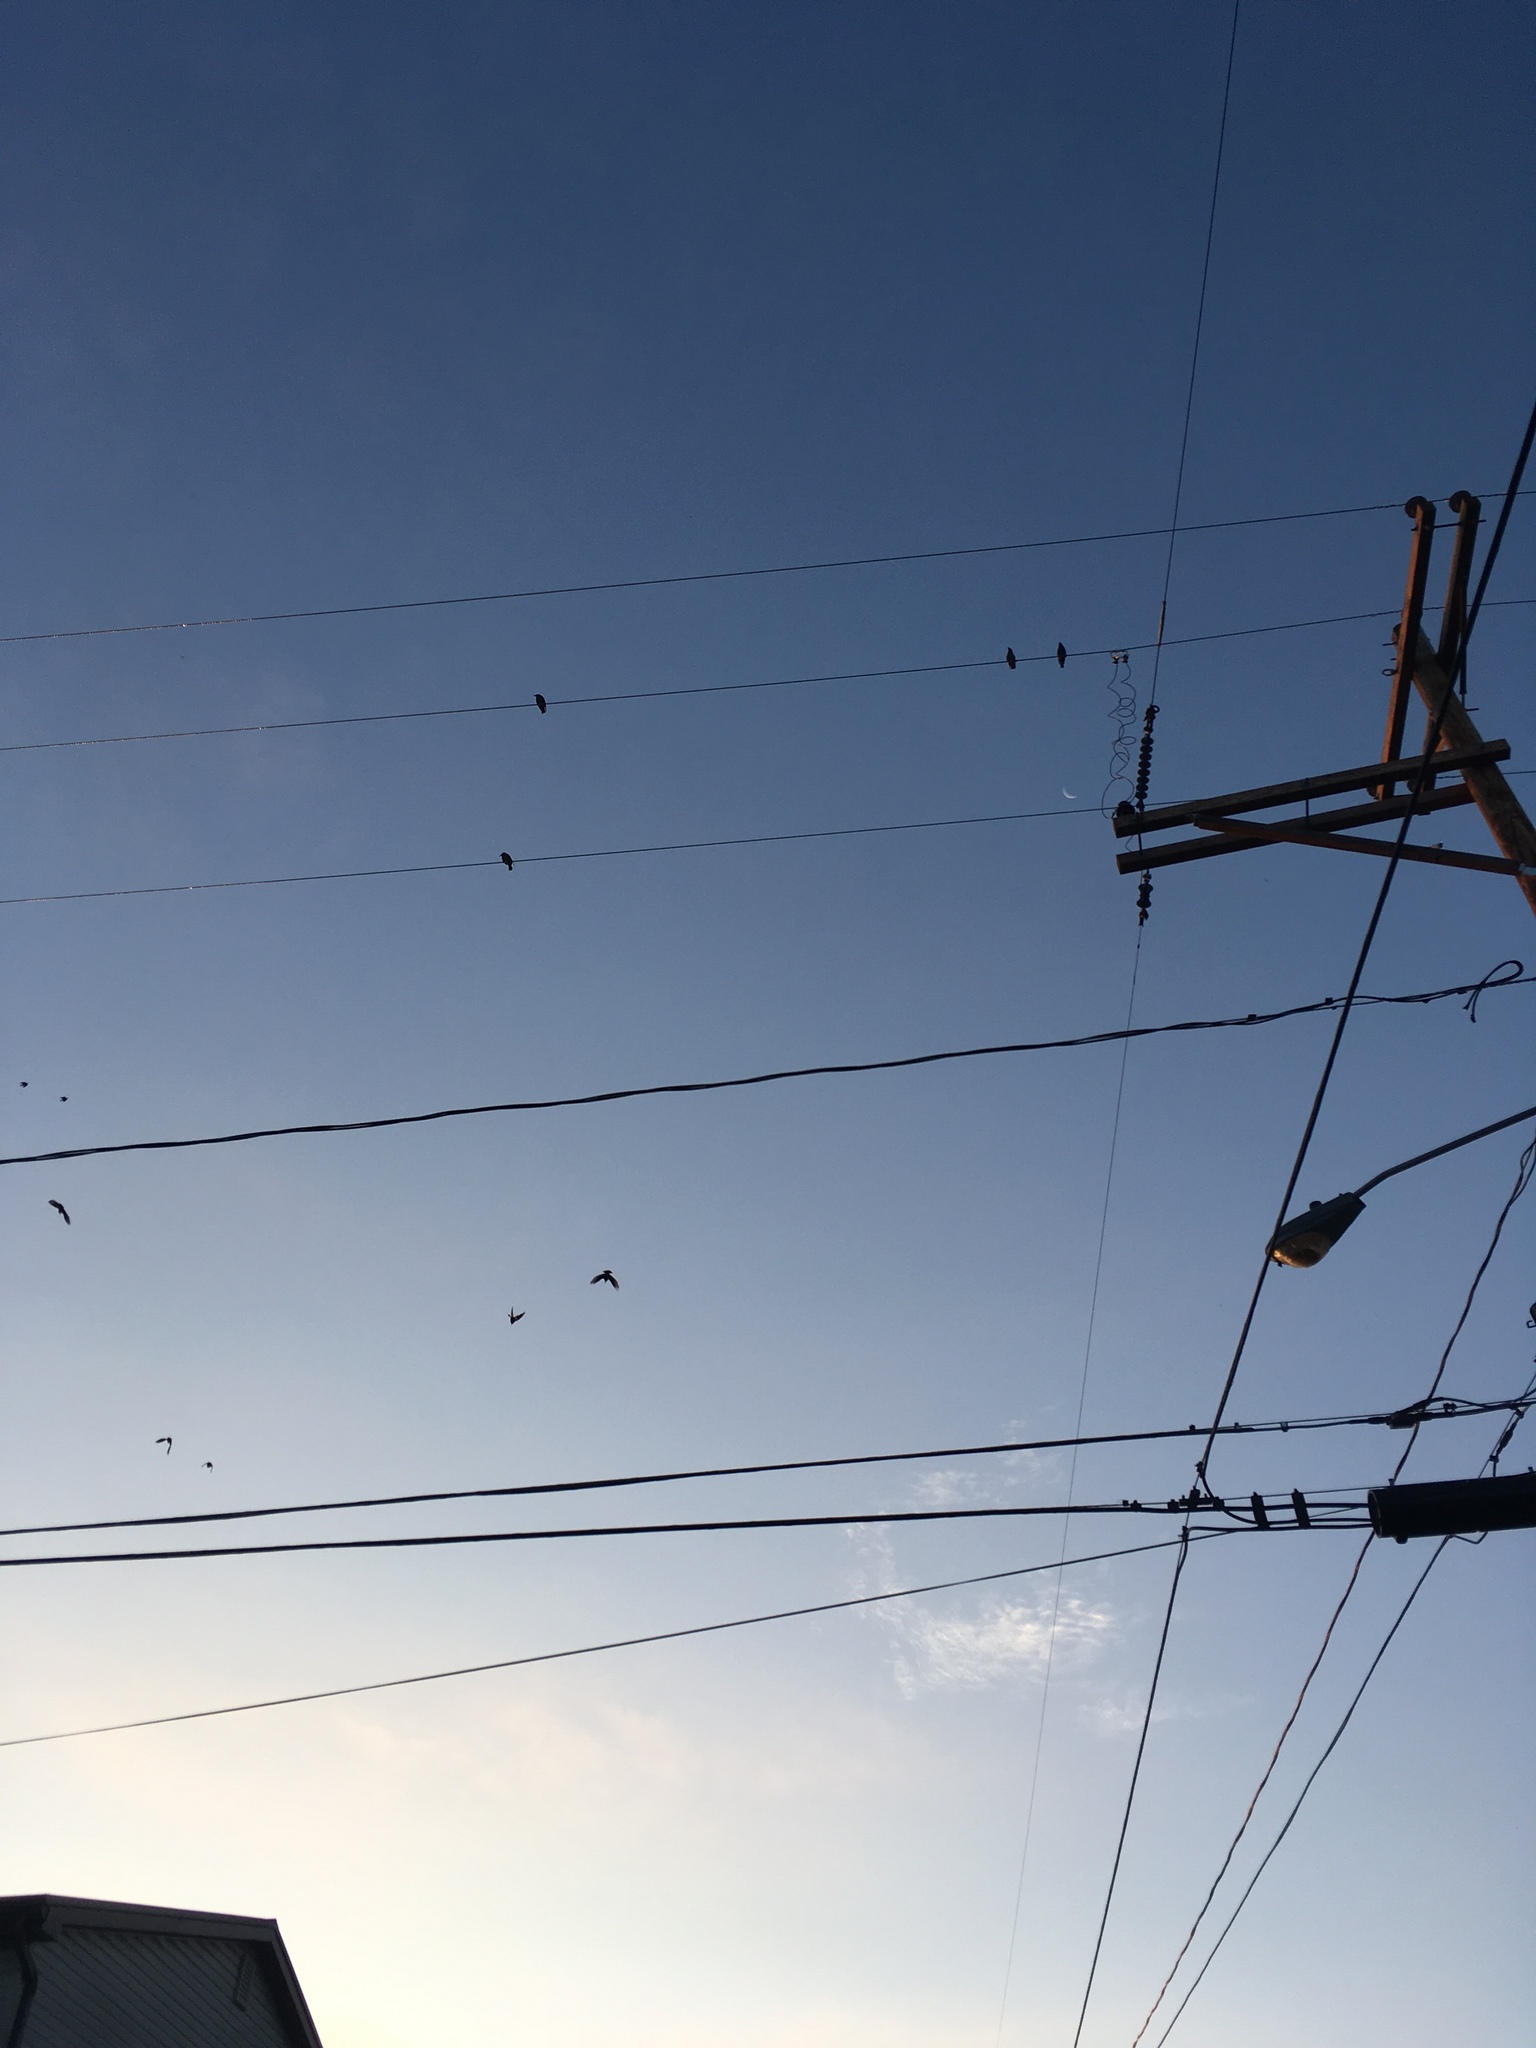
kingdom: Animalia
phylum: Chordata
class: Aves
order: Passeriformes
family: Sturnidae
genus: Sturnus
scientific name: Sturnus vulgaris
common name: Common starling
